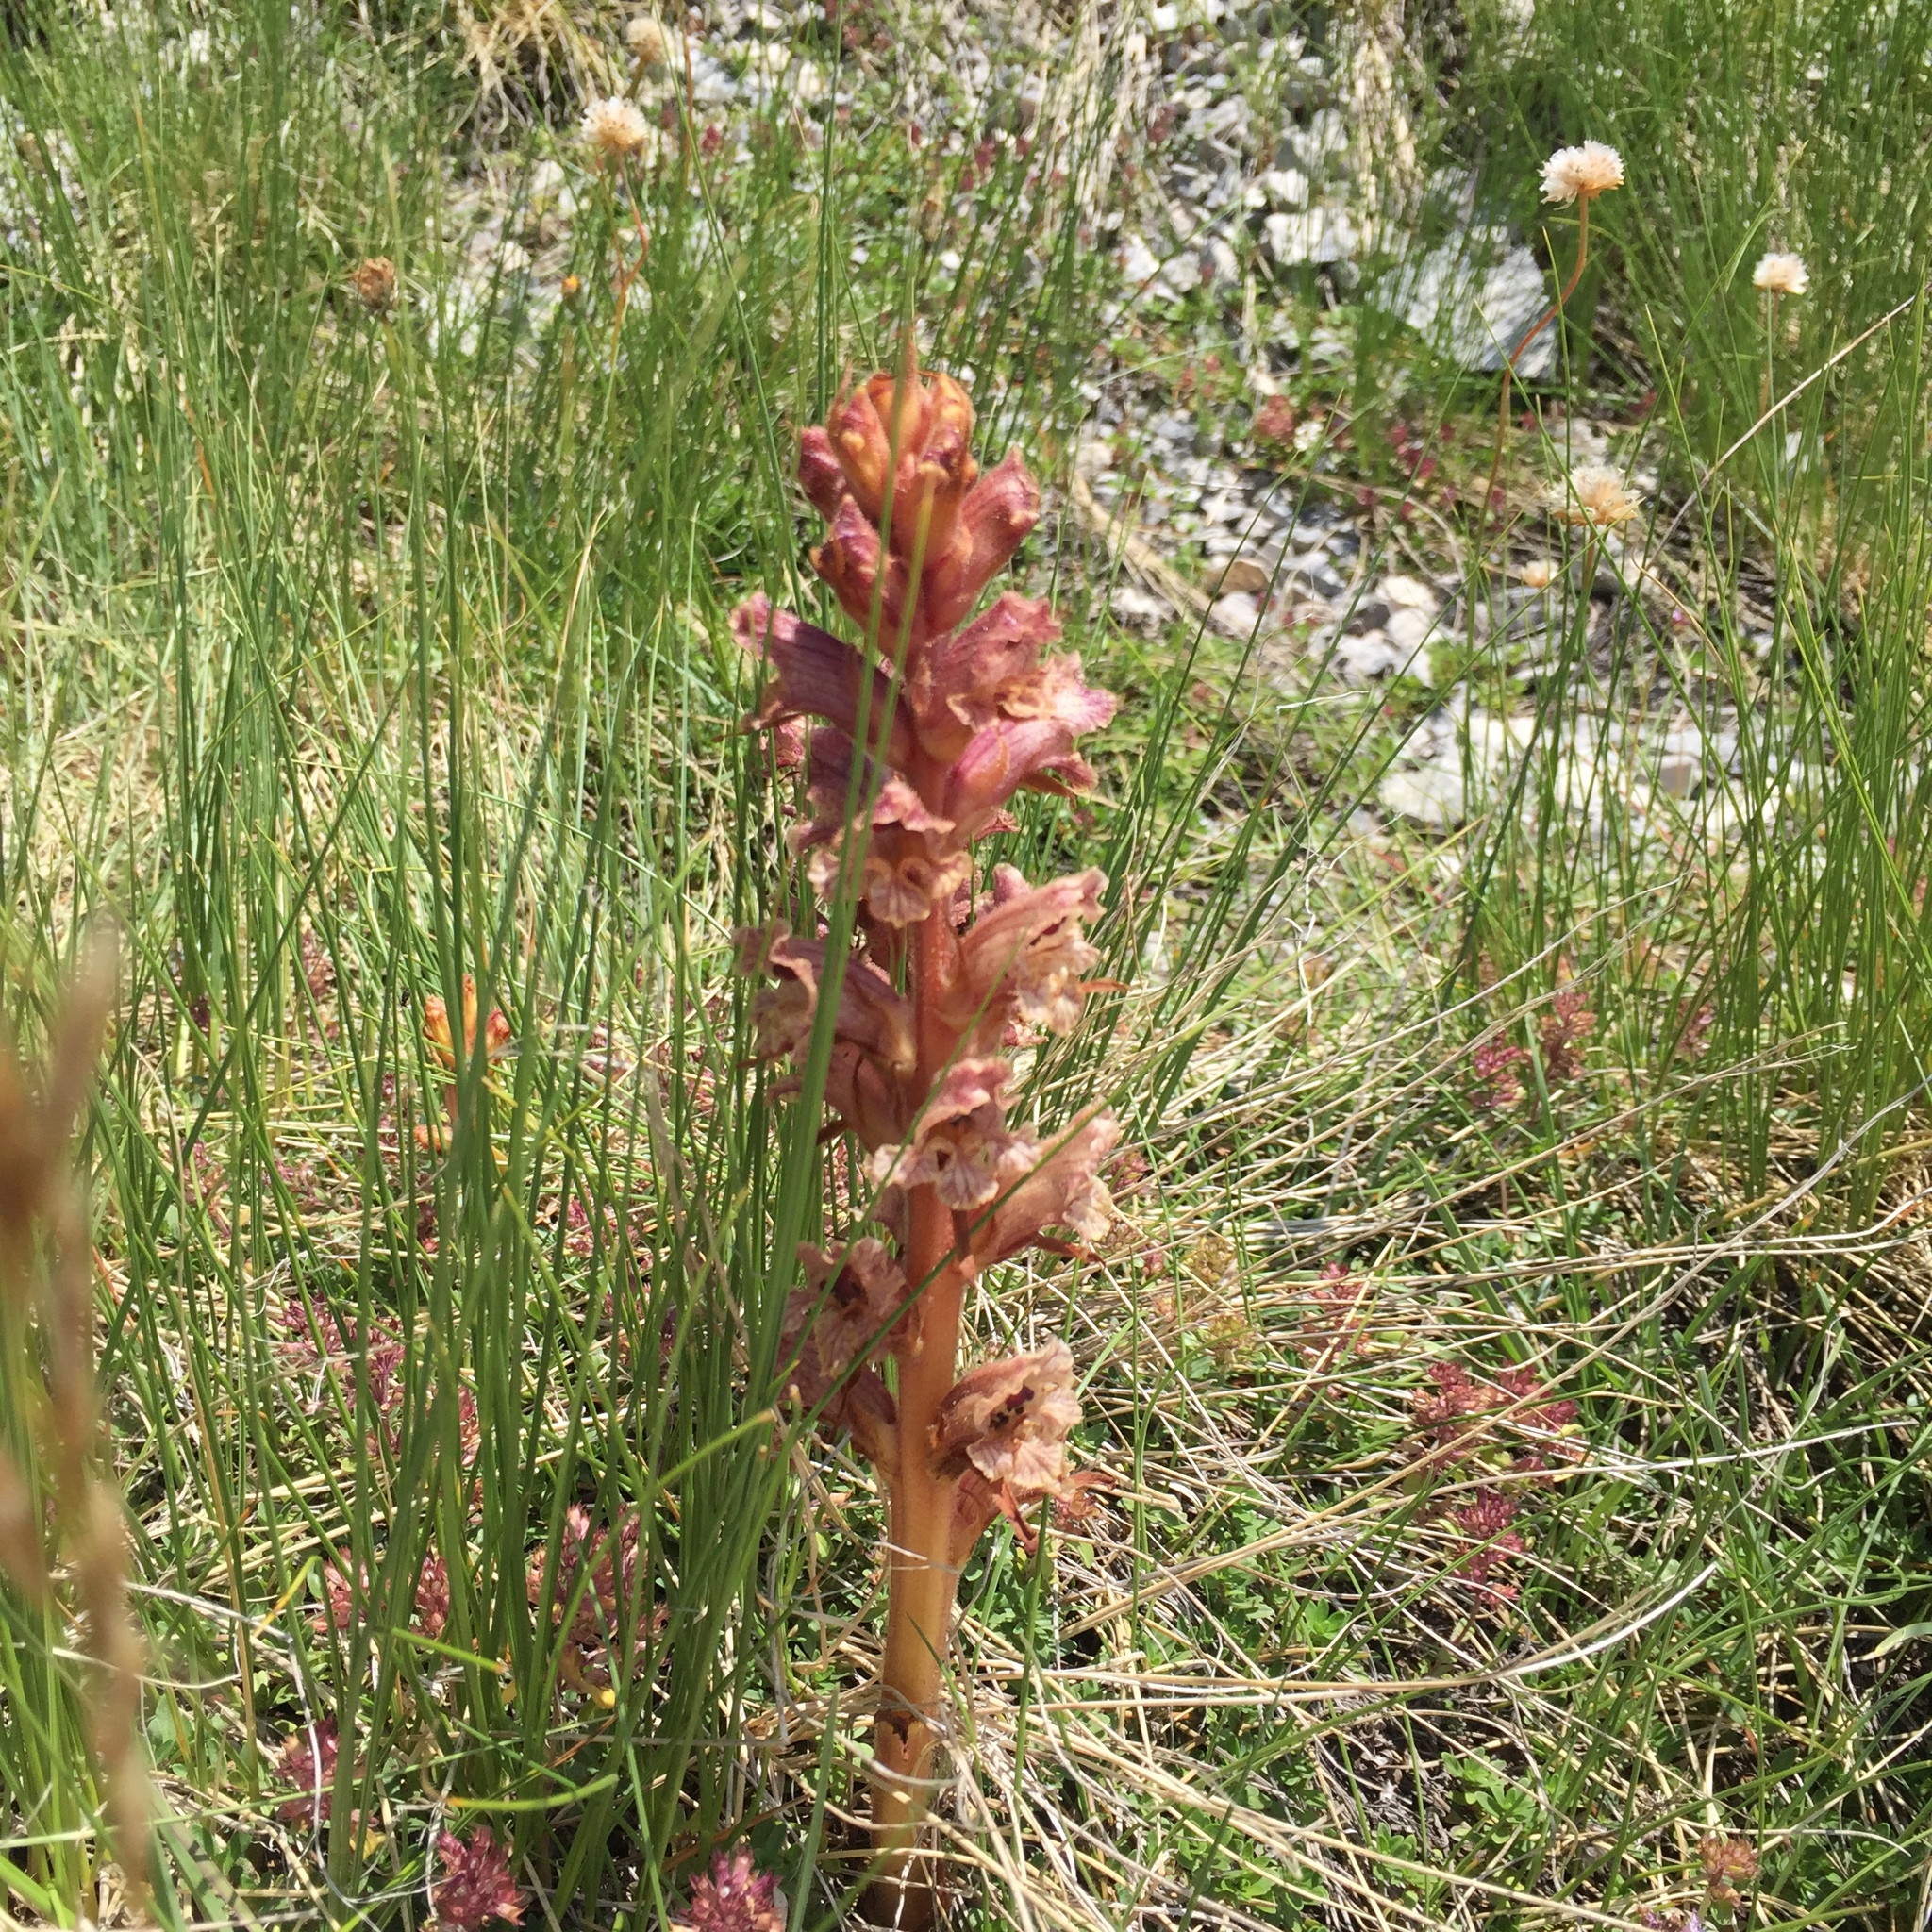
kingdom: Plantae
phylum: Tracheophyta
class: Magnoliopsida
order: Lamiales
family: Orobanchaceae
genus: Orobanche
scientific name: Orobanche alba
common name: Thyme broomrape
